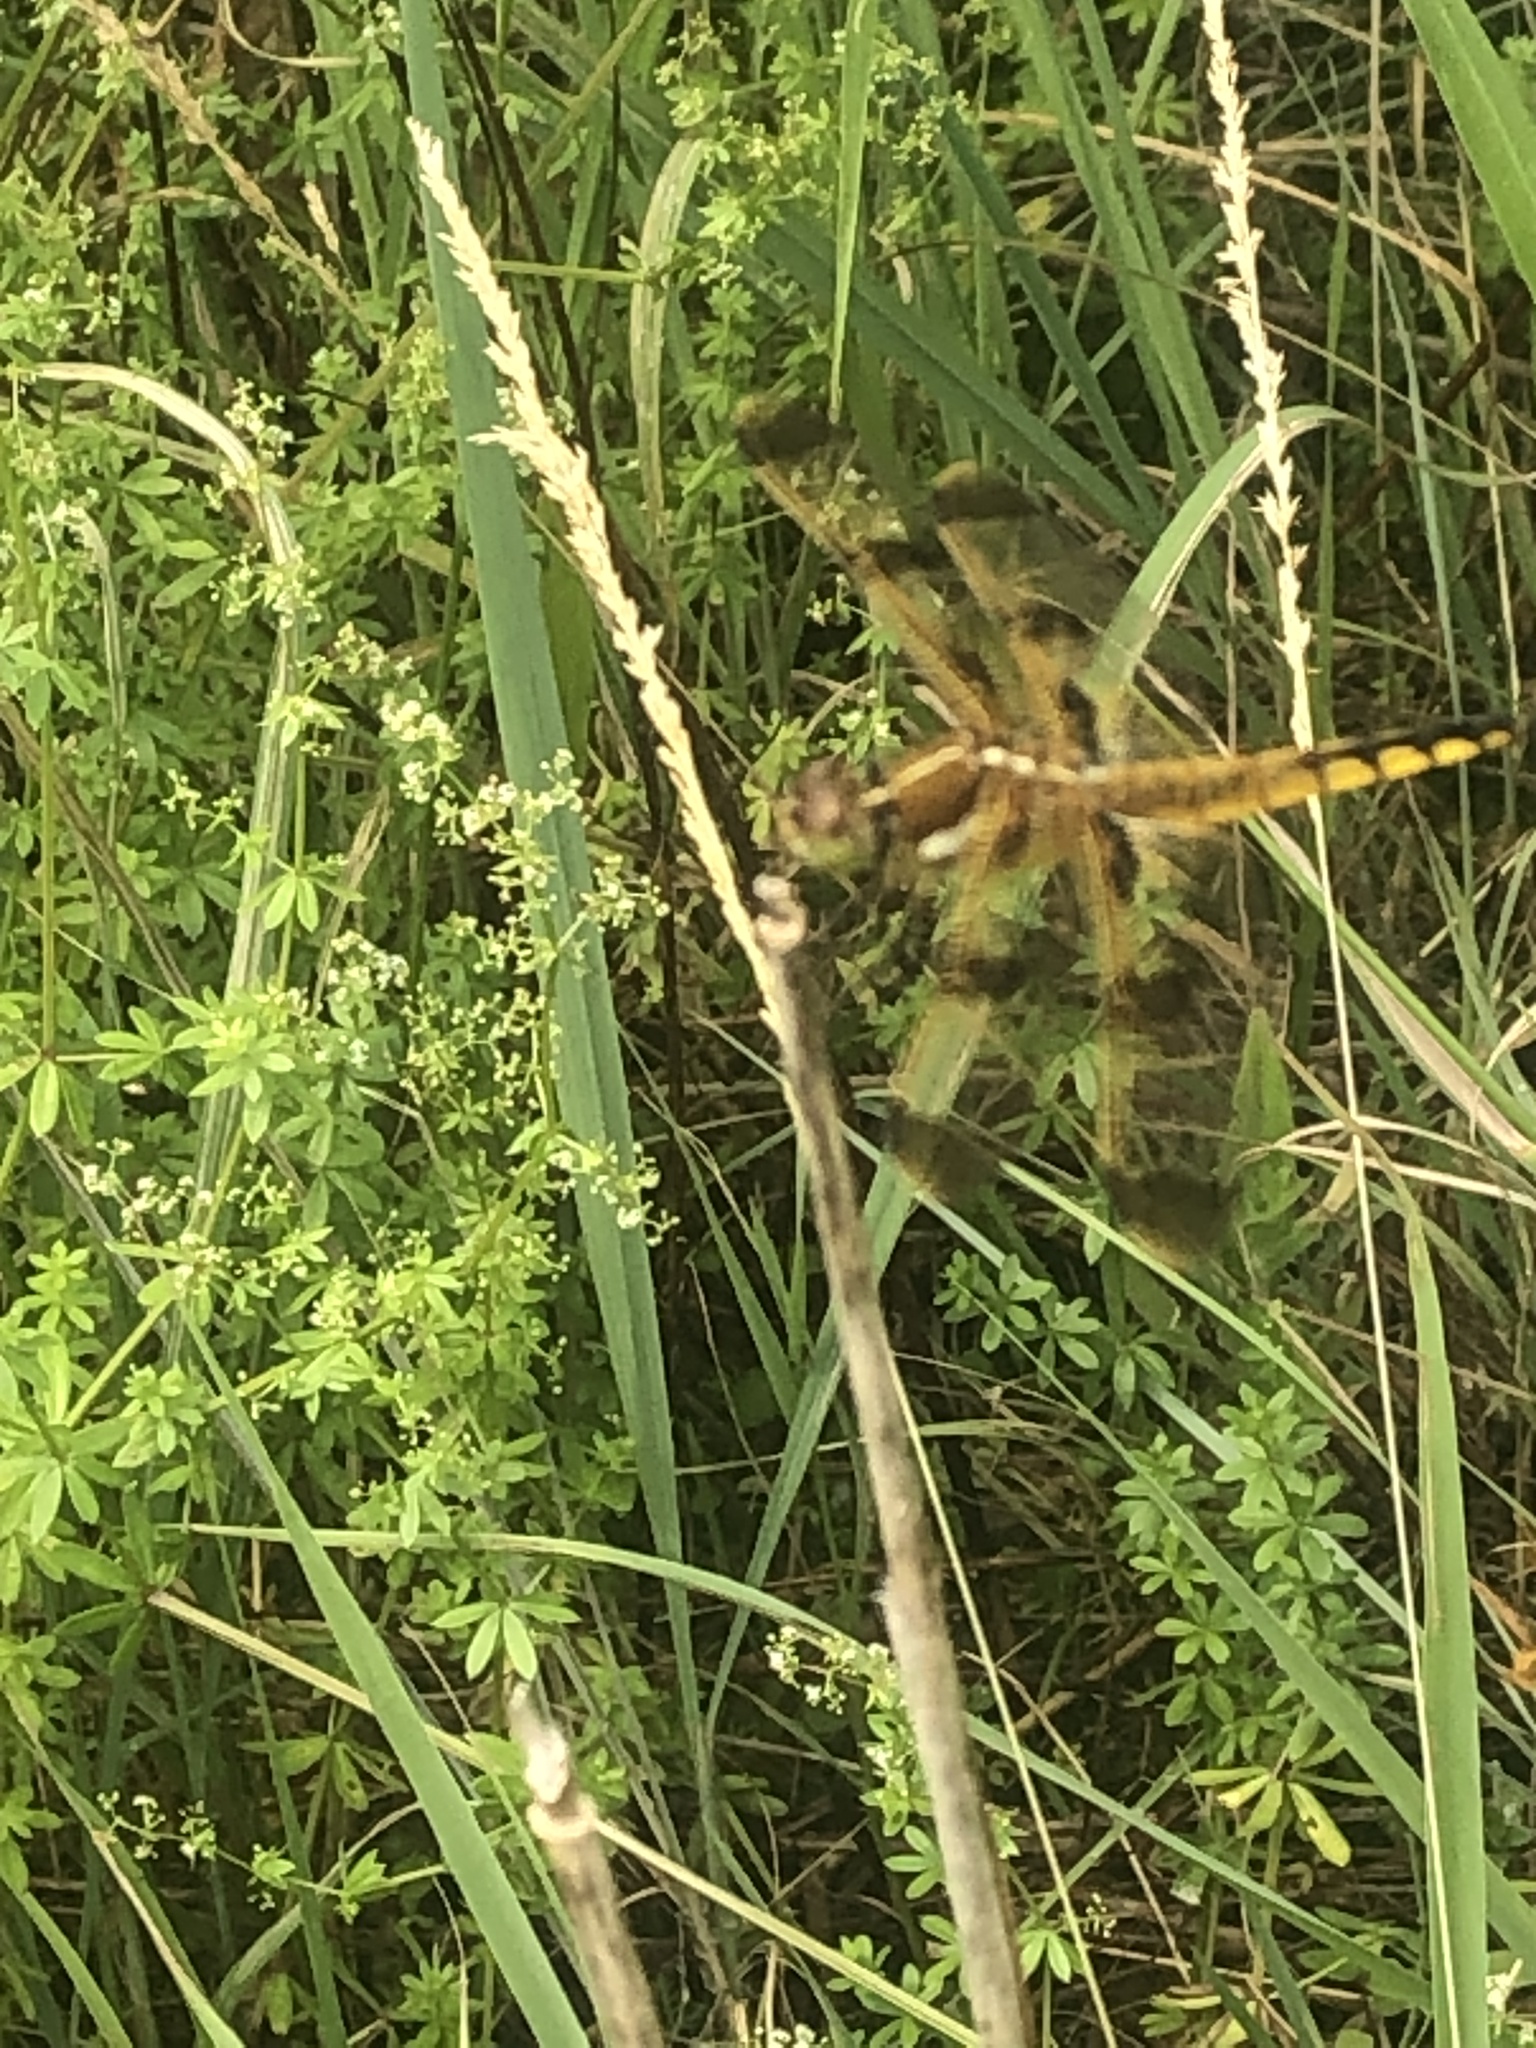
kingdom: Animalia
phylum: Arthropoda
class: Insecta
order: Odonata
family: Libellulidae
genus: Libellula
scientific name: Libellula semifasciata
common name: Painted skimmer
